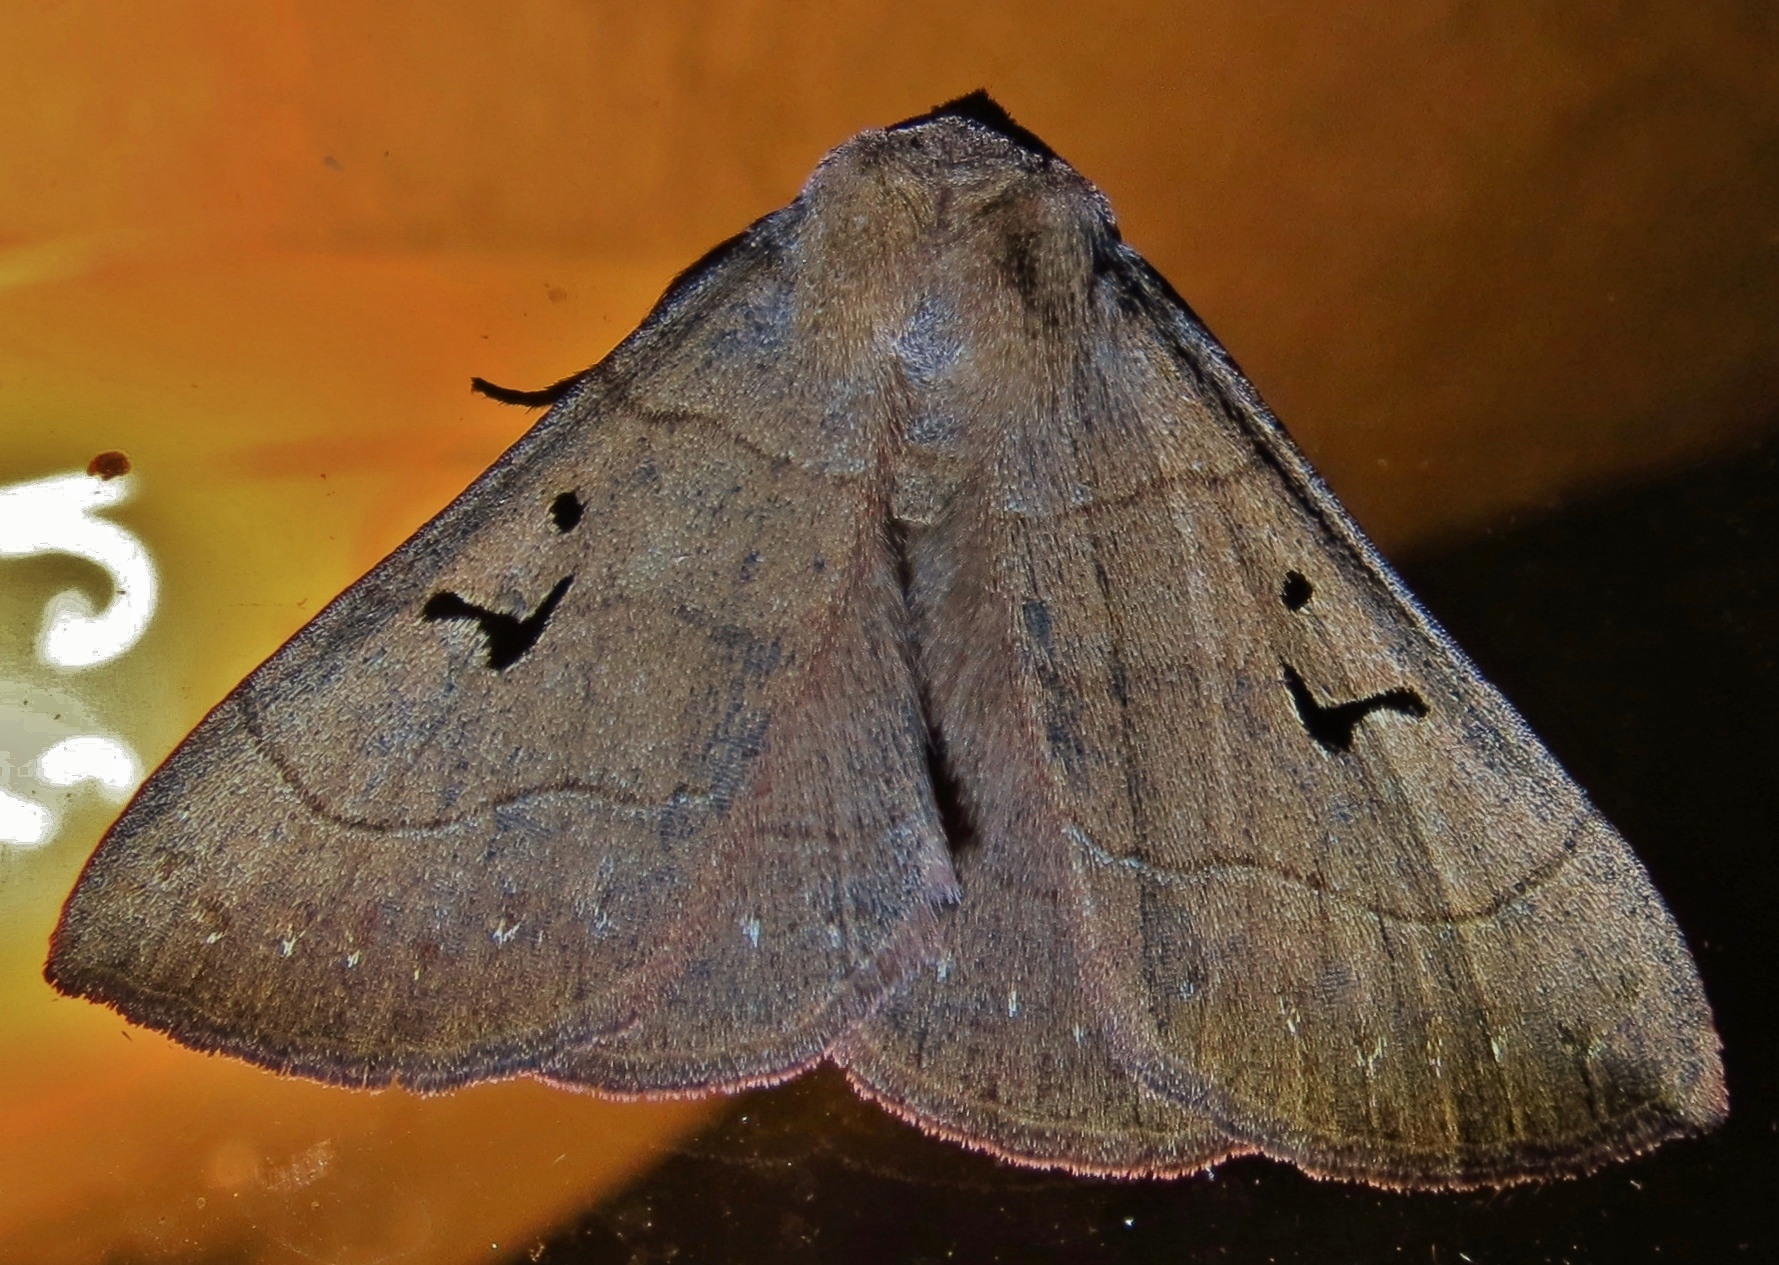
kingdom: Animalia
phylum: Arthropoda
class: Insecta
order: Lepidoptera
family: Erebidae
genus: Panopoda
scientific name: Panopoda carneicosta
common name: Brown panopoda moth
